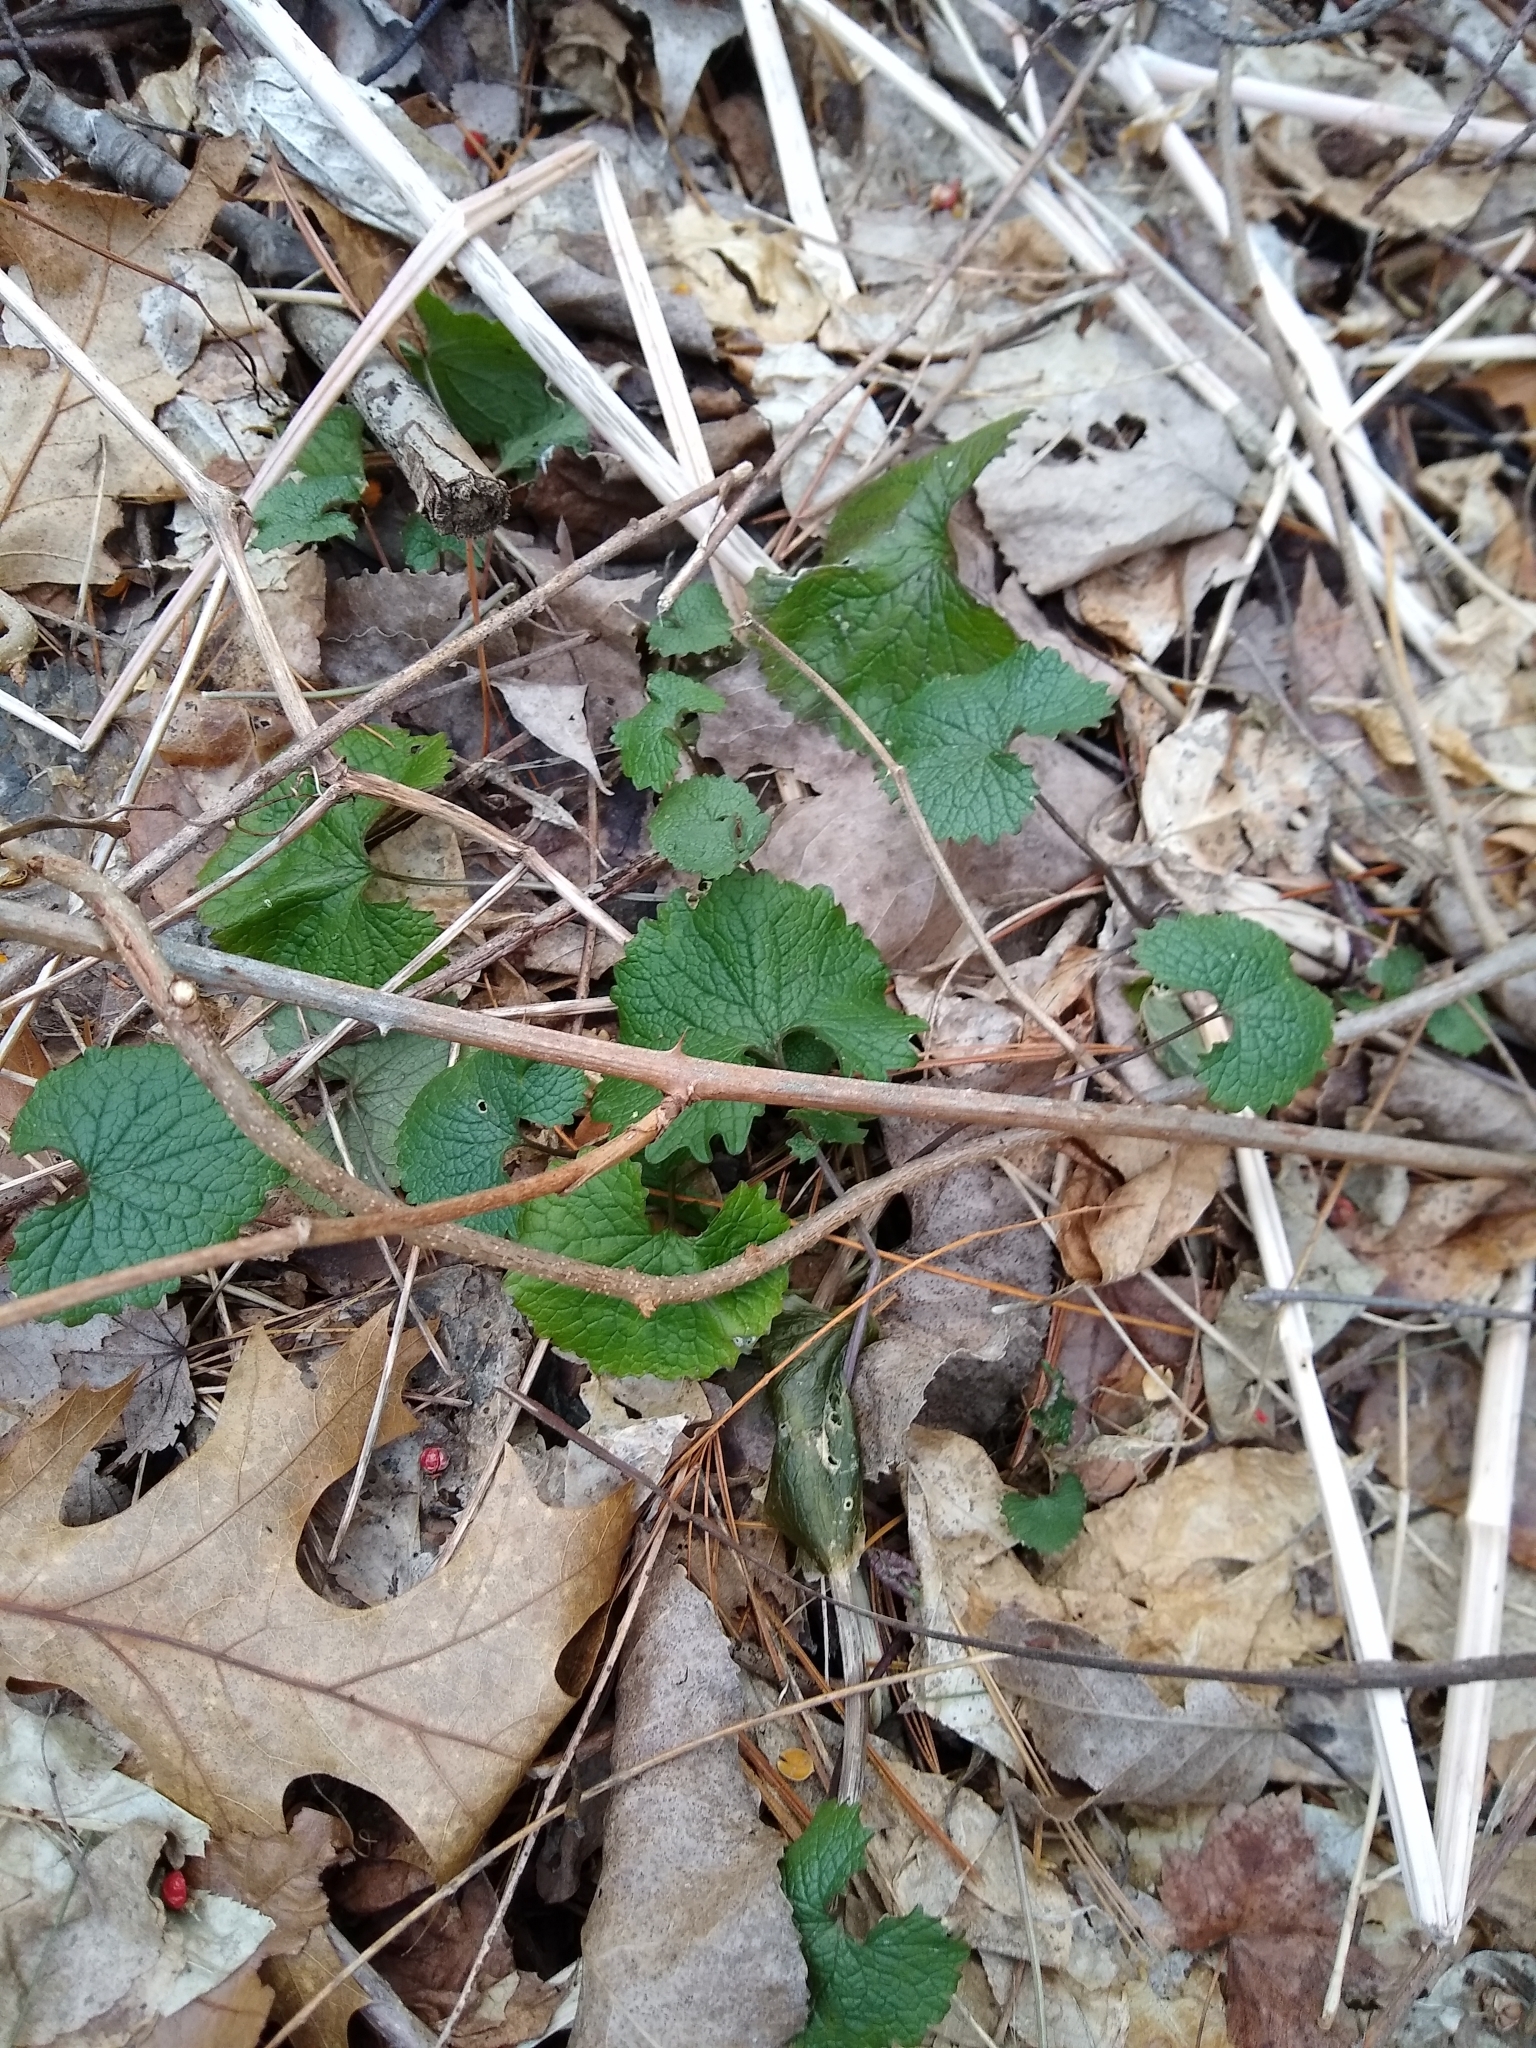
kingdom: Plantae
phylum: Tracheophyta
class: Magnoliopsida
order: Brassicales
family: Brassicaceae
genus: Alliaria
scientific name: Alliaria petiolata
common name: Garlic mustard
